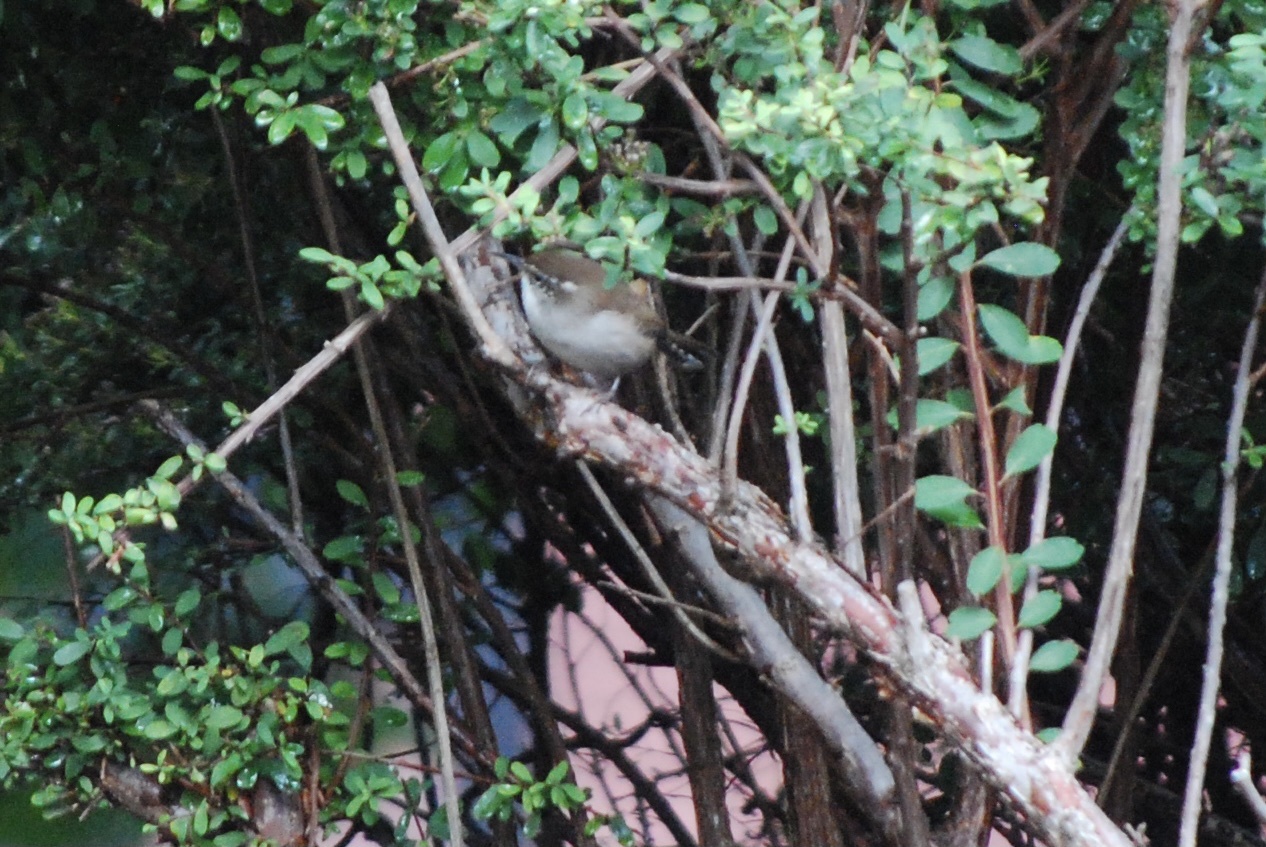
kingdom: Animalia
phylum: Chordata
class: Aves
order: Passeriformes
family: Troglodytidae
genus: Thryomanes
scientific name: Thryomanes bewickii
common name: Bewick's wren
